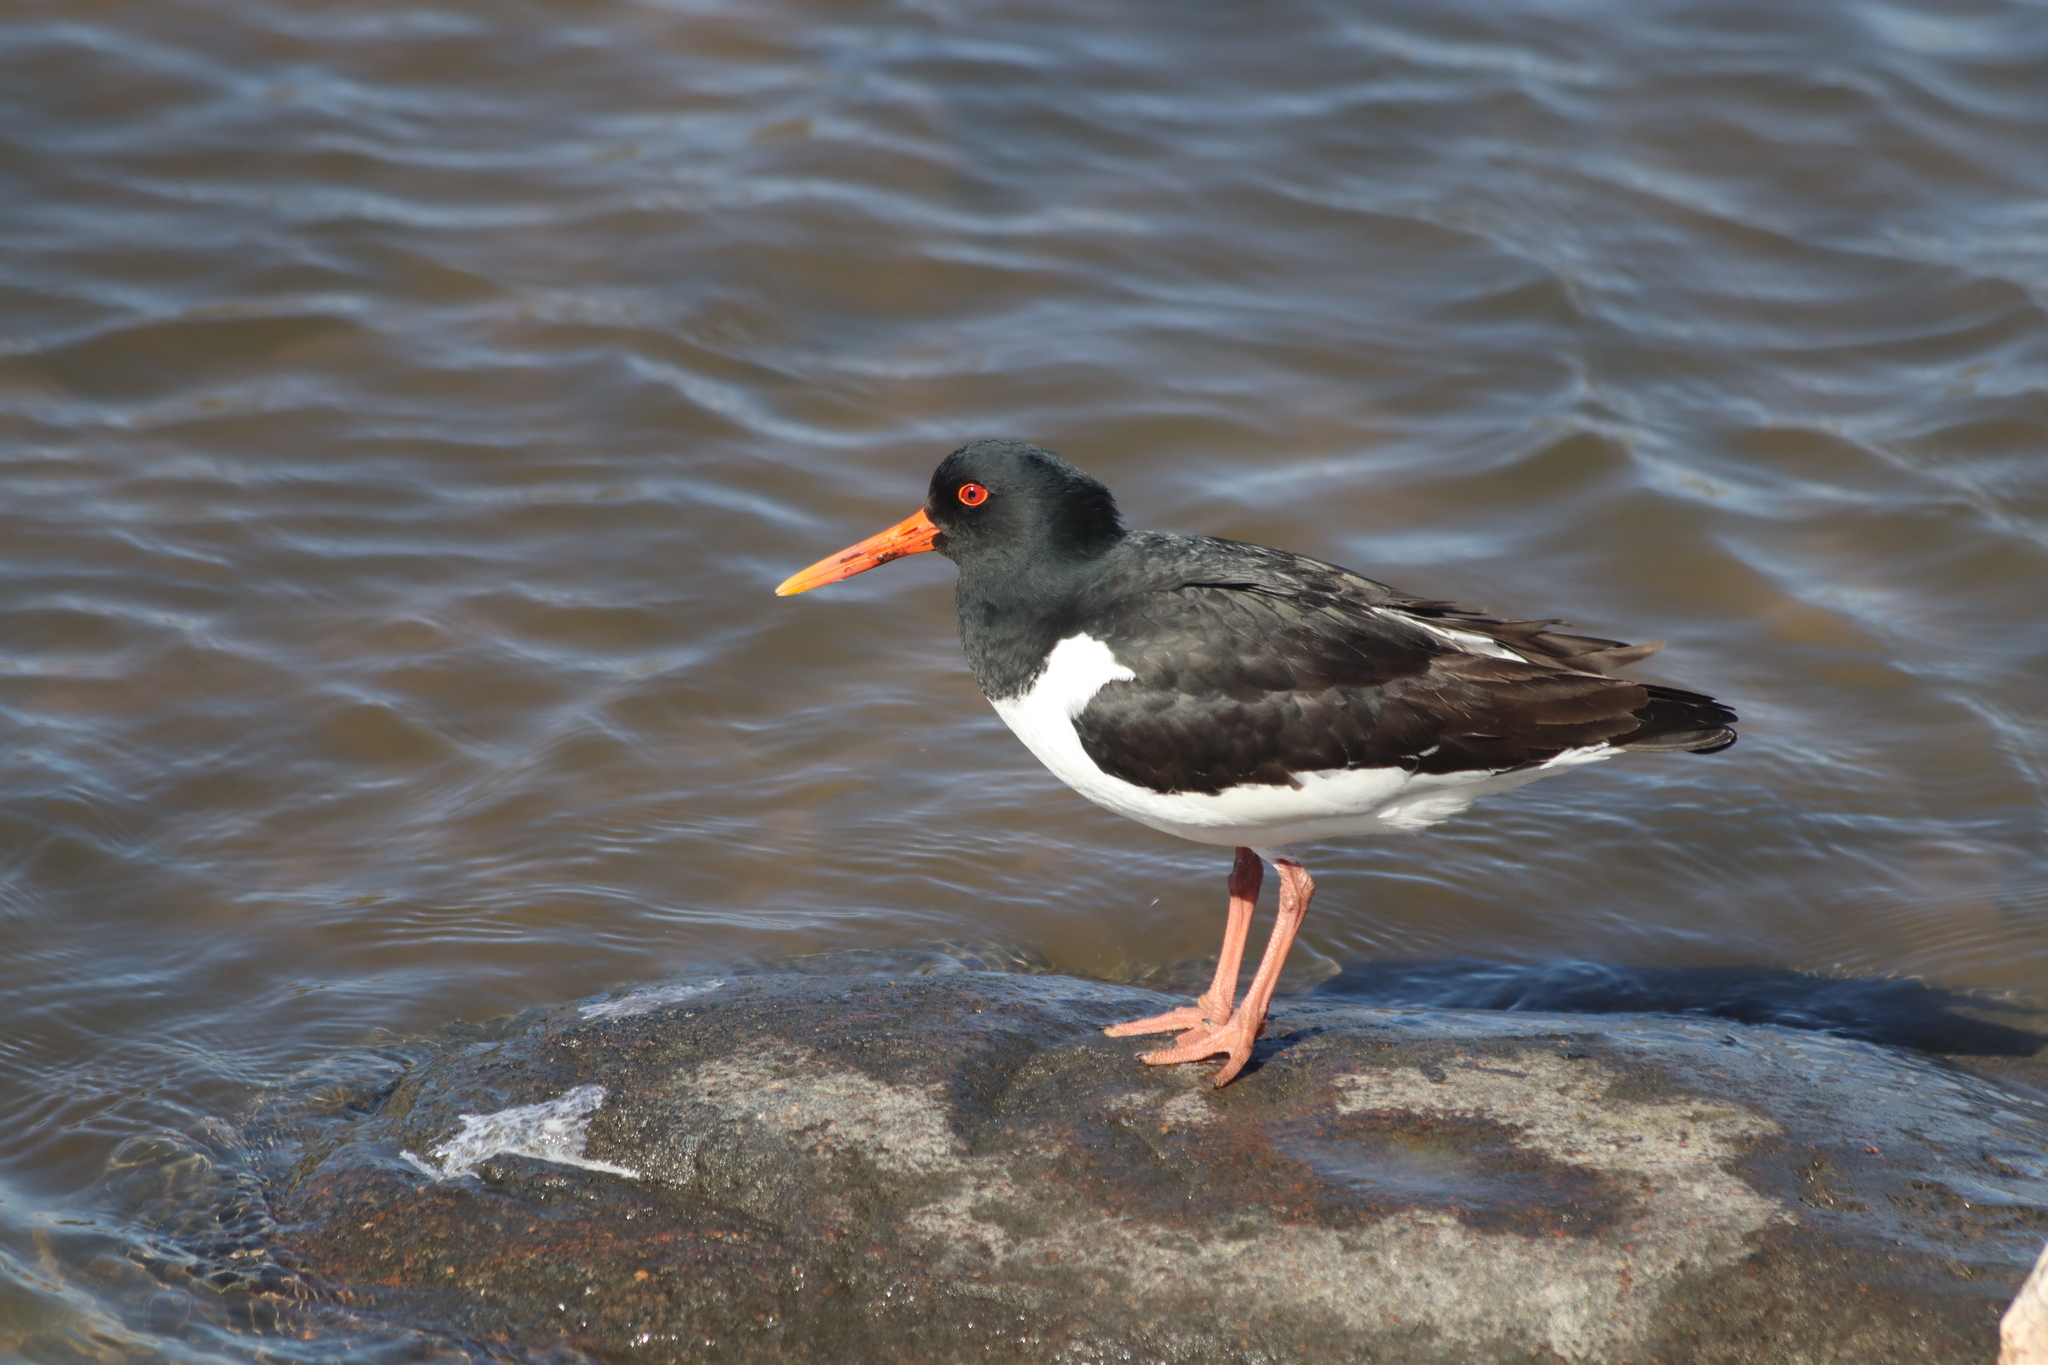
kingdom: Animalia
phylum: Chordata
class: Aves
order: Charadriiformes
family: Haematopodidae
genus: Haematopus
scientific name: Haematopus ostralegus
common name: Eurasian oystercatcher
